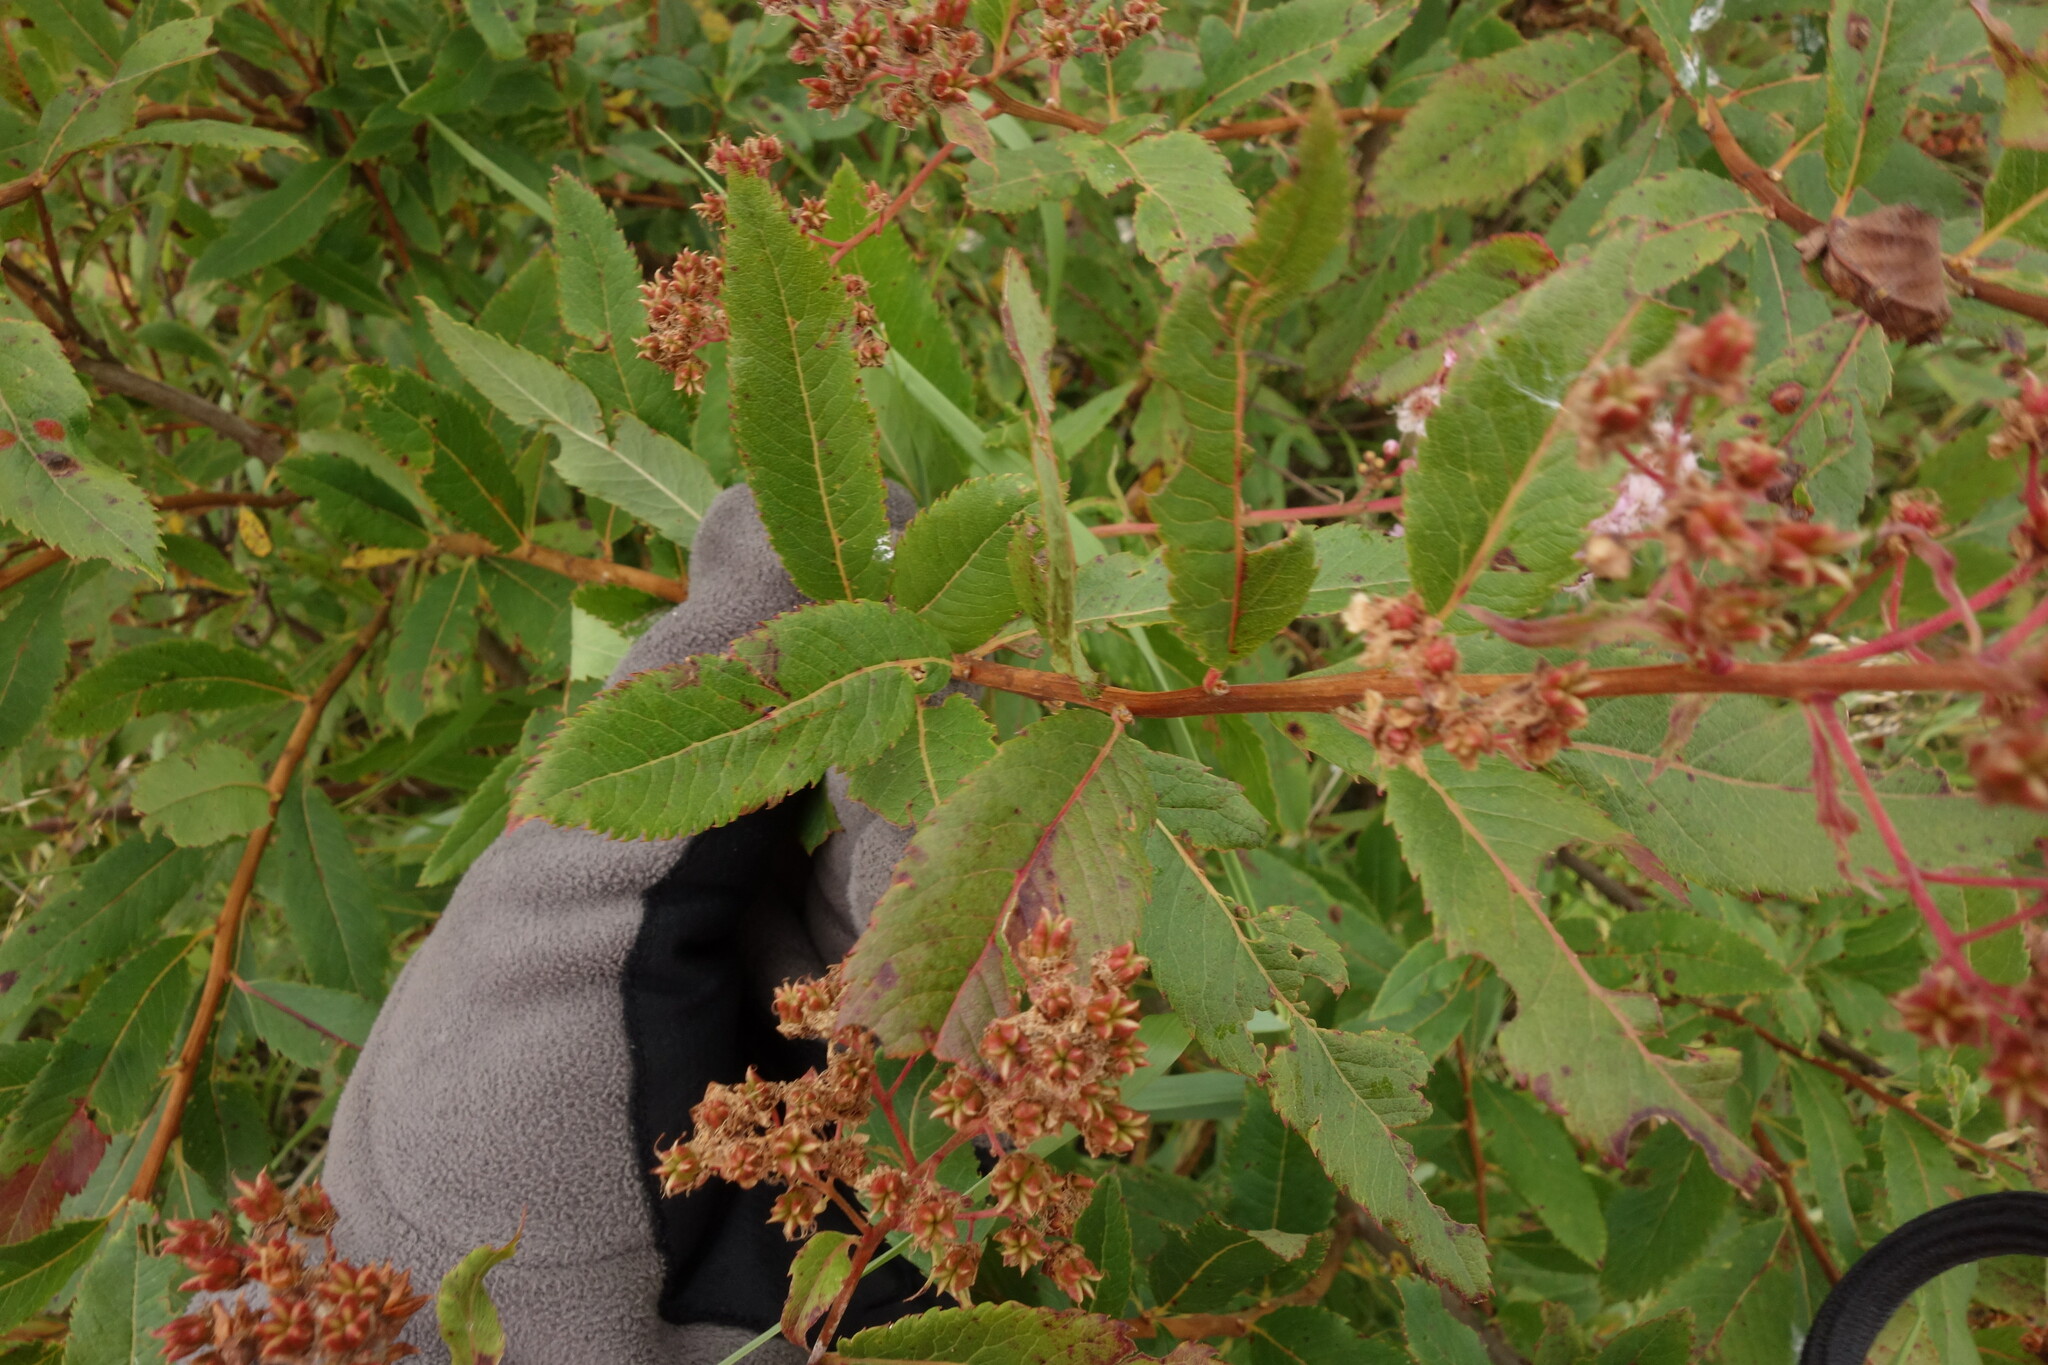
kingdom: Plantae
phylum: Tracheophyta
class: Magnoliopsida
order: Rosales
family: Rosaceae
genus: Spiraea
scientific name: Spiraea salicifolia
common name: Bridewort
